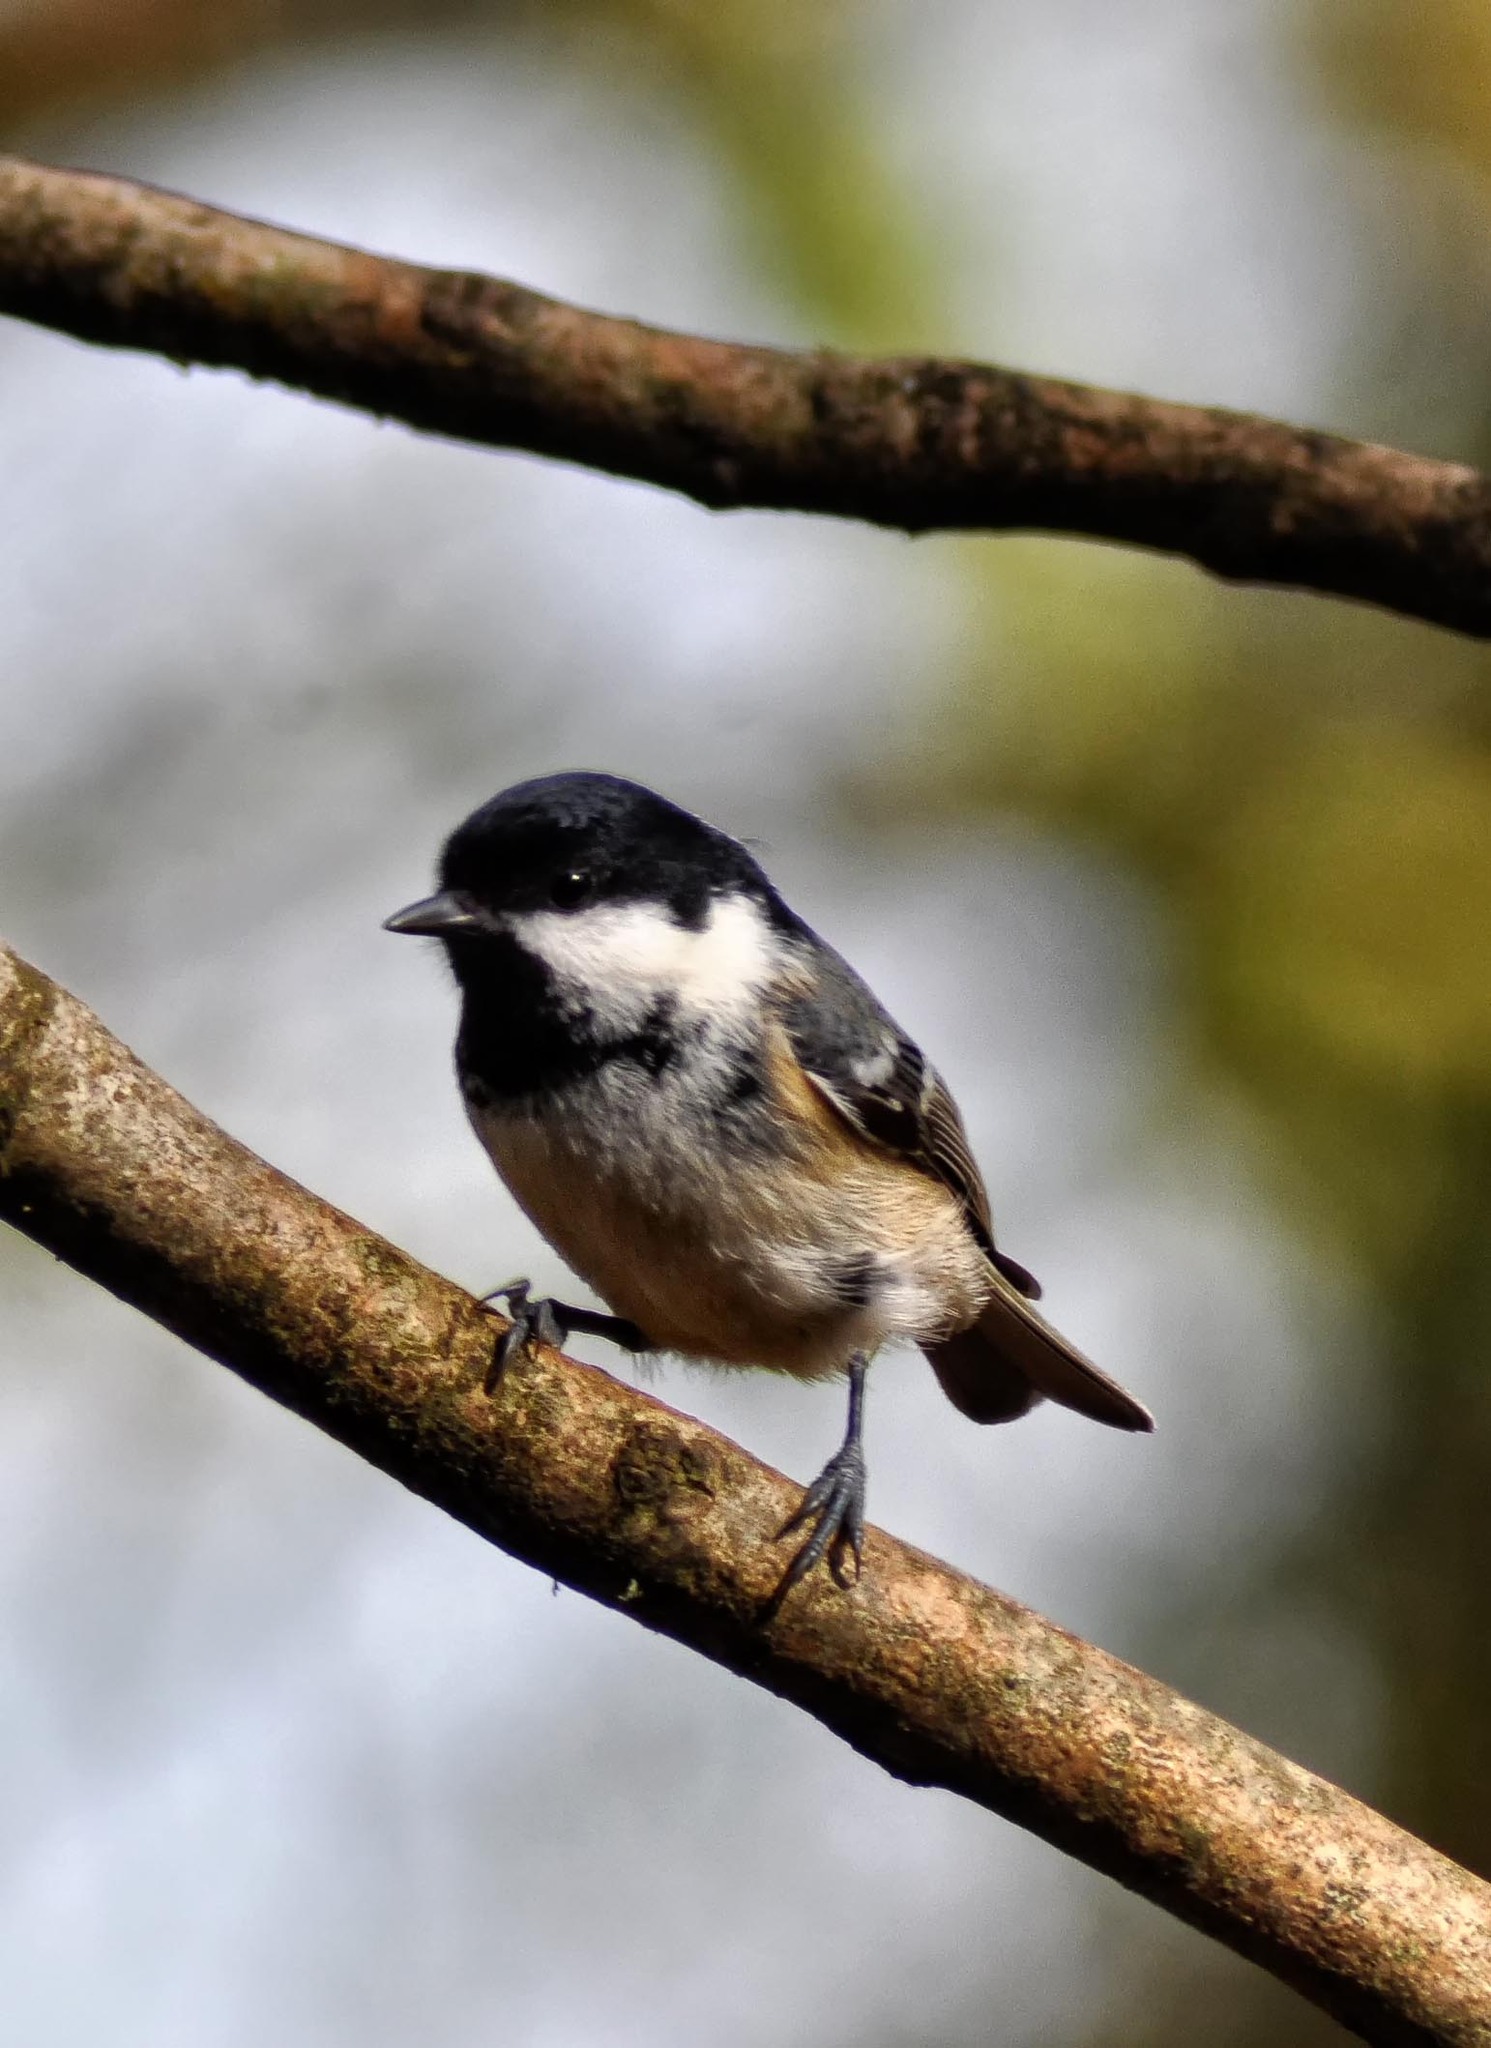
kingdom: Animalia
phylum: Chordata
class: Aves
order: Passeriformes
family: Paridae
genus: Periparus
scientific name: Periparus ater
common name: Coal tit
